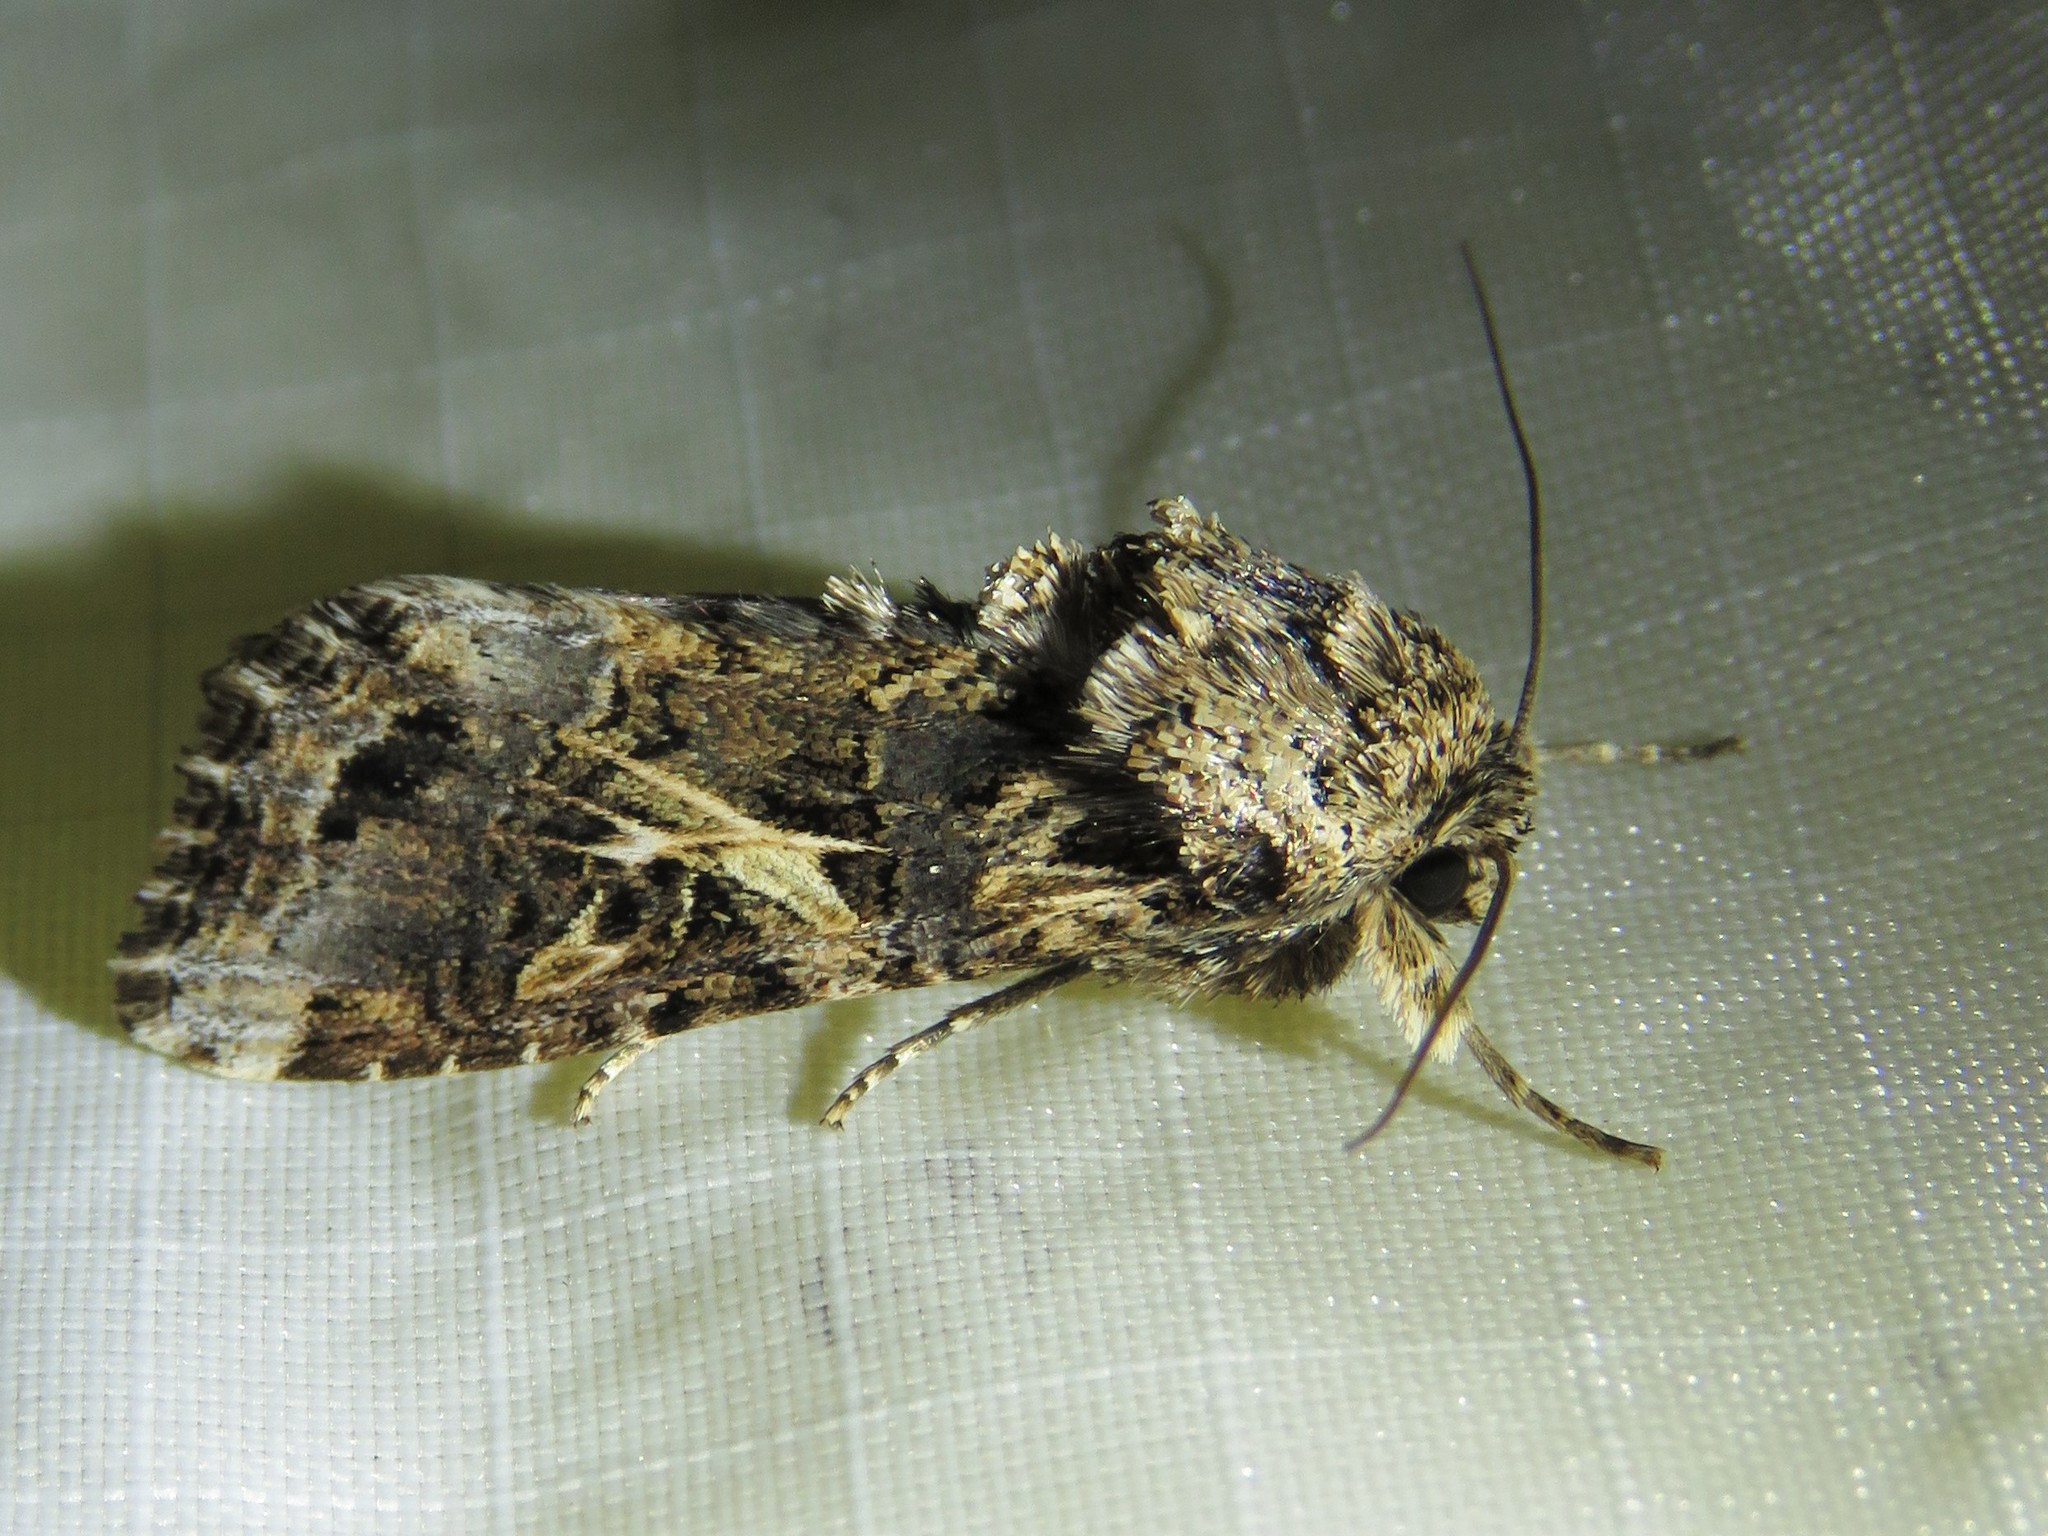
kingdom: Animalia
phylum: Arthropoda
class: Insecta
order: Lepidoptera
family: Noctuidae
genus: Spodoptera
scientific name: Spodoptera ornithogalli
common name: Yellow-striped armyworm
